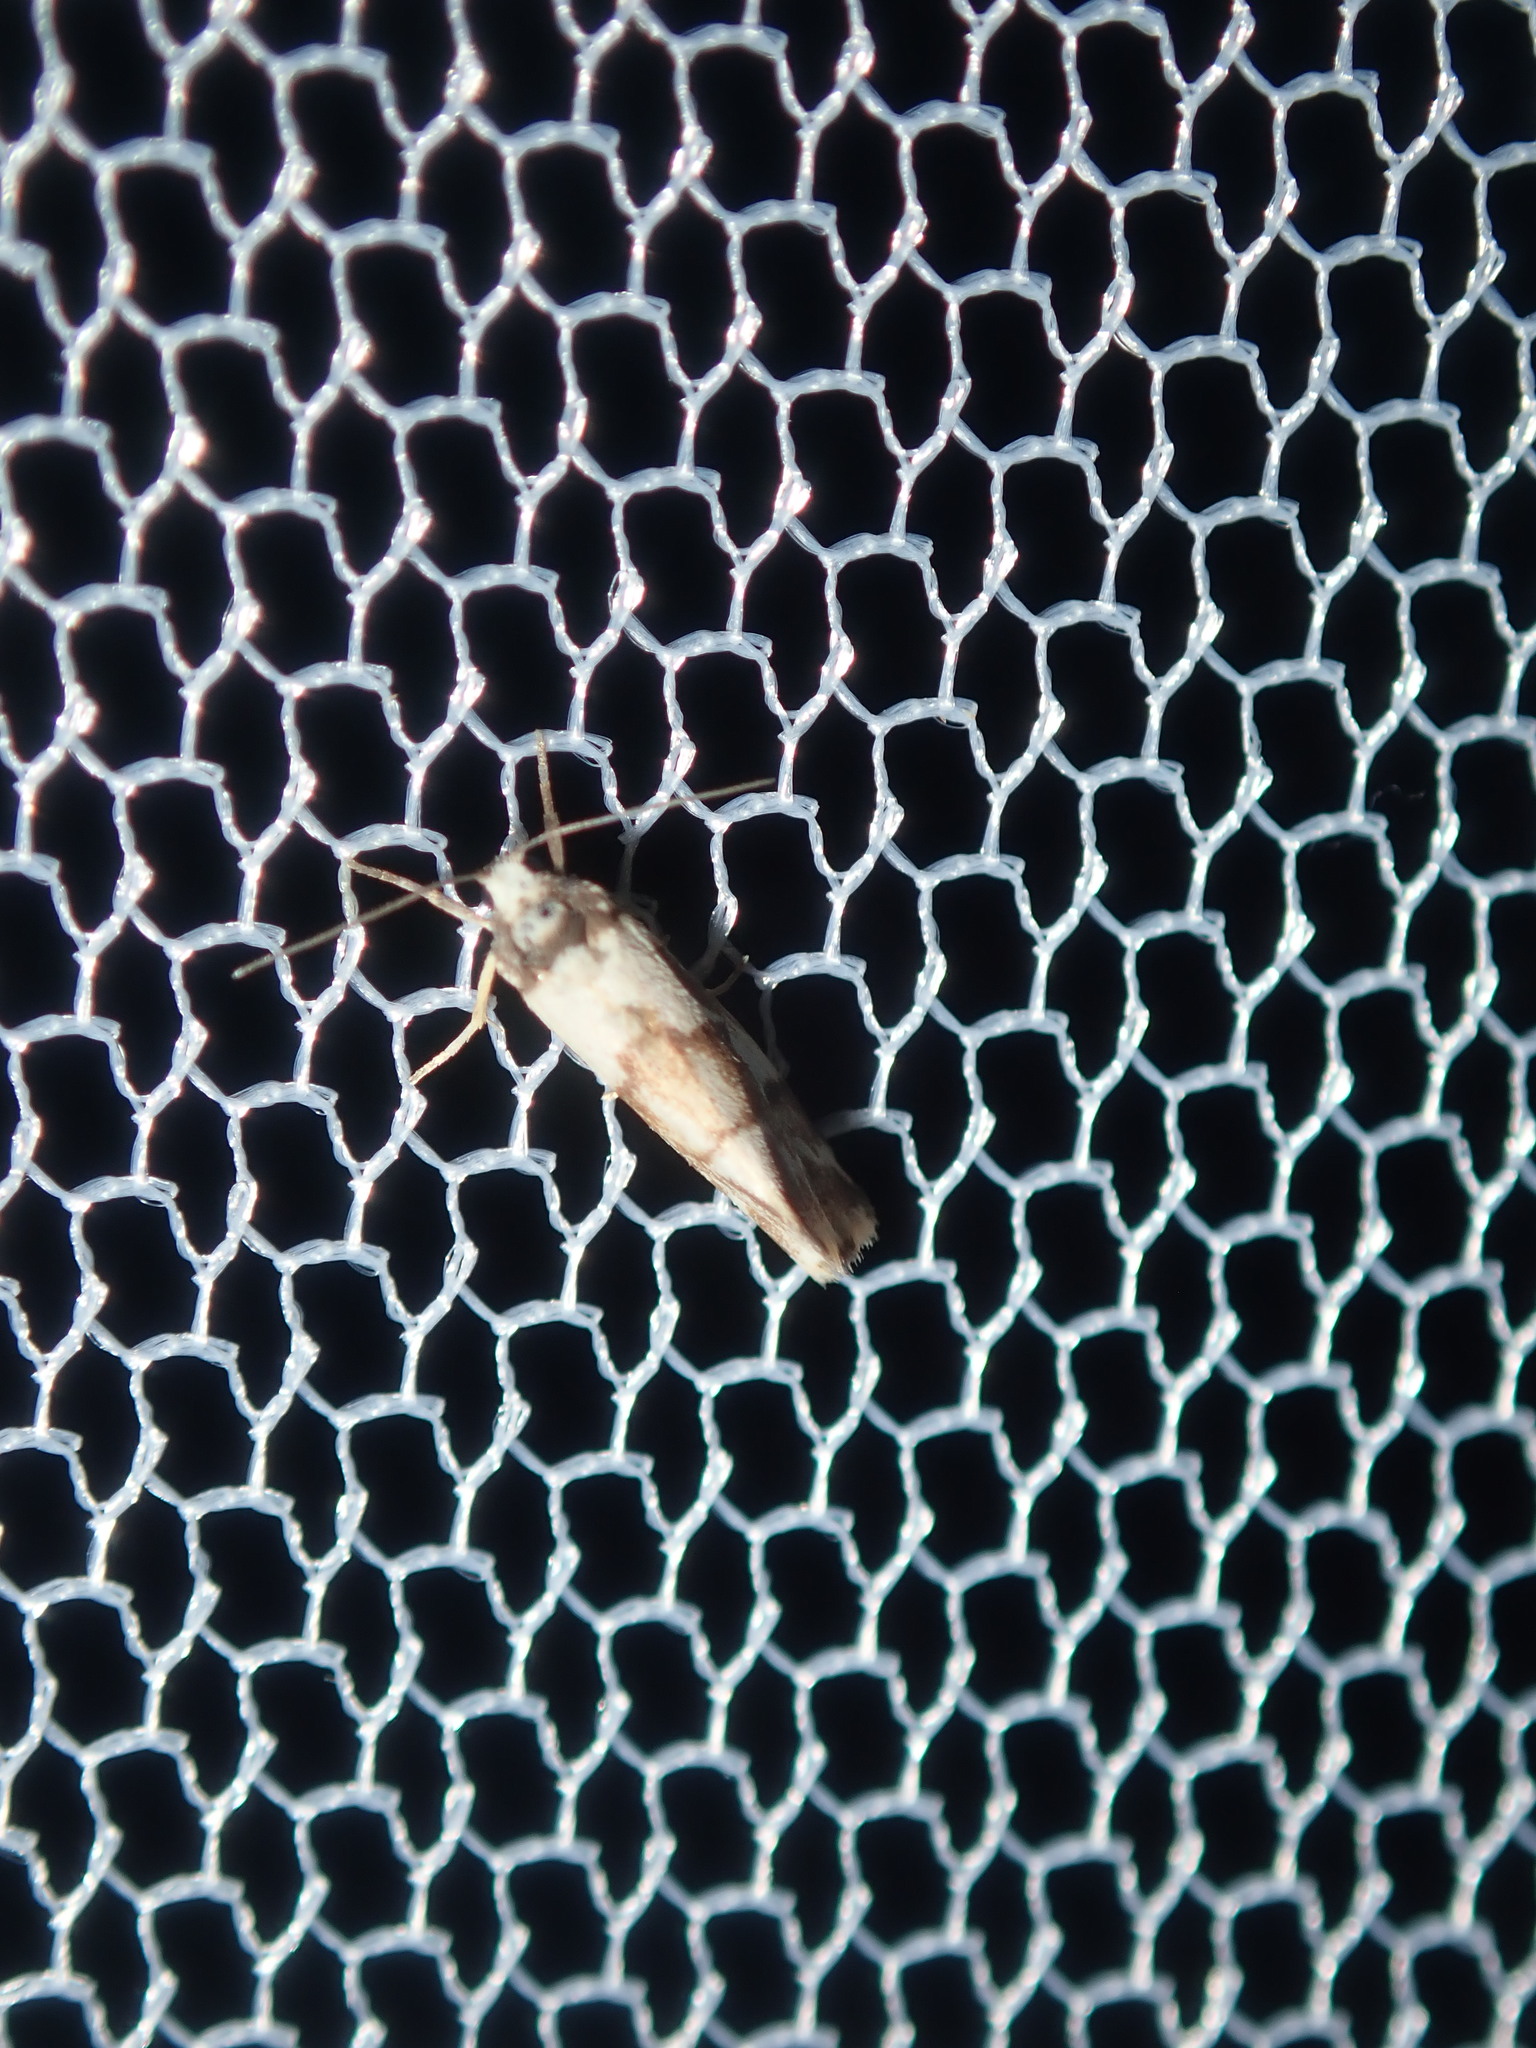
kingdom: Animalia
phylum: Arthropoda
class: Insecta
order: Lepidoptera
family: Erebidae
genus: Philenora
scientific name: Philenora chionastis
